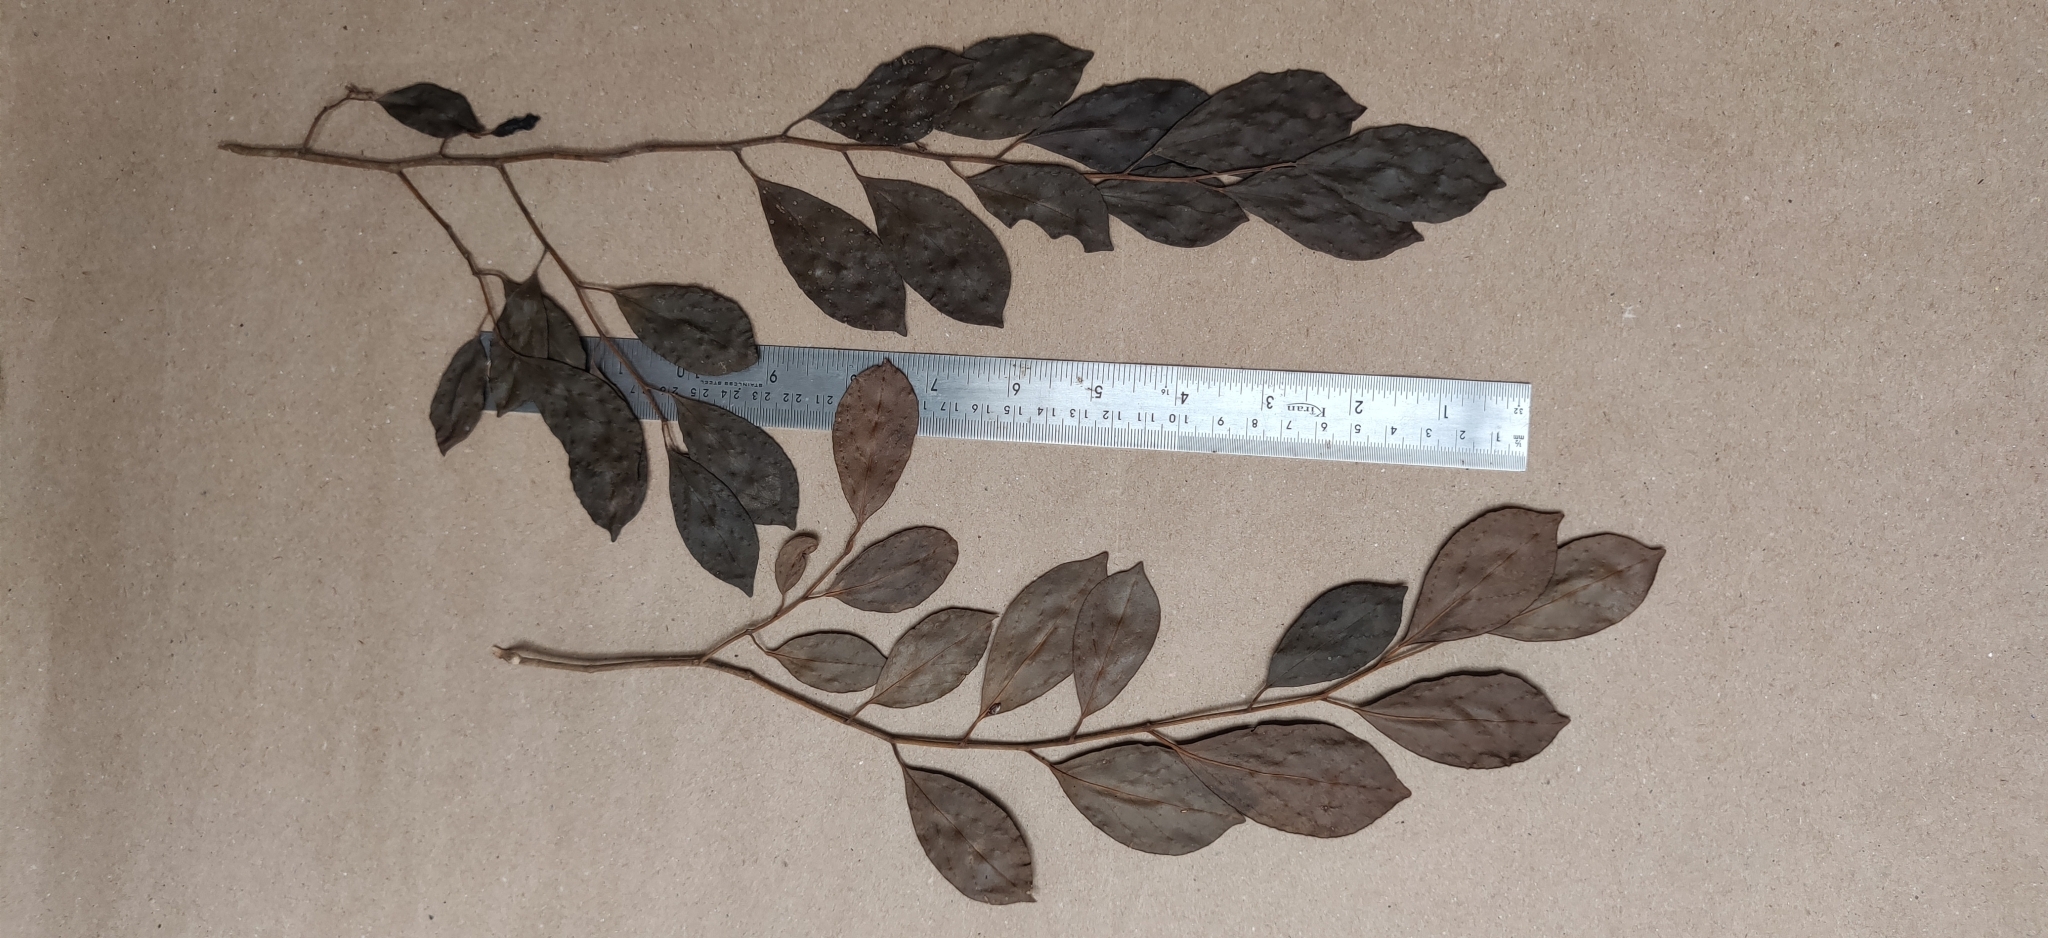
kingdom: Plantae
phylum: Tracheophyta
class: Magnoliopsida
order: Cardiopteridales
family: Stemonuraceae
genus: Gomphandra
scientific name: Gomphandra coriacea
